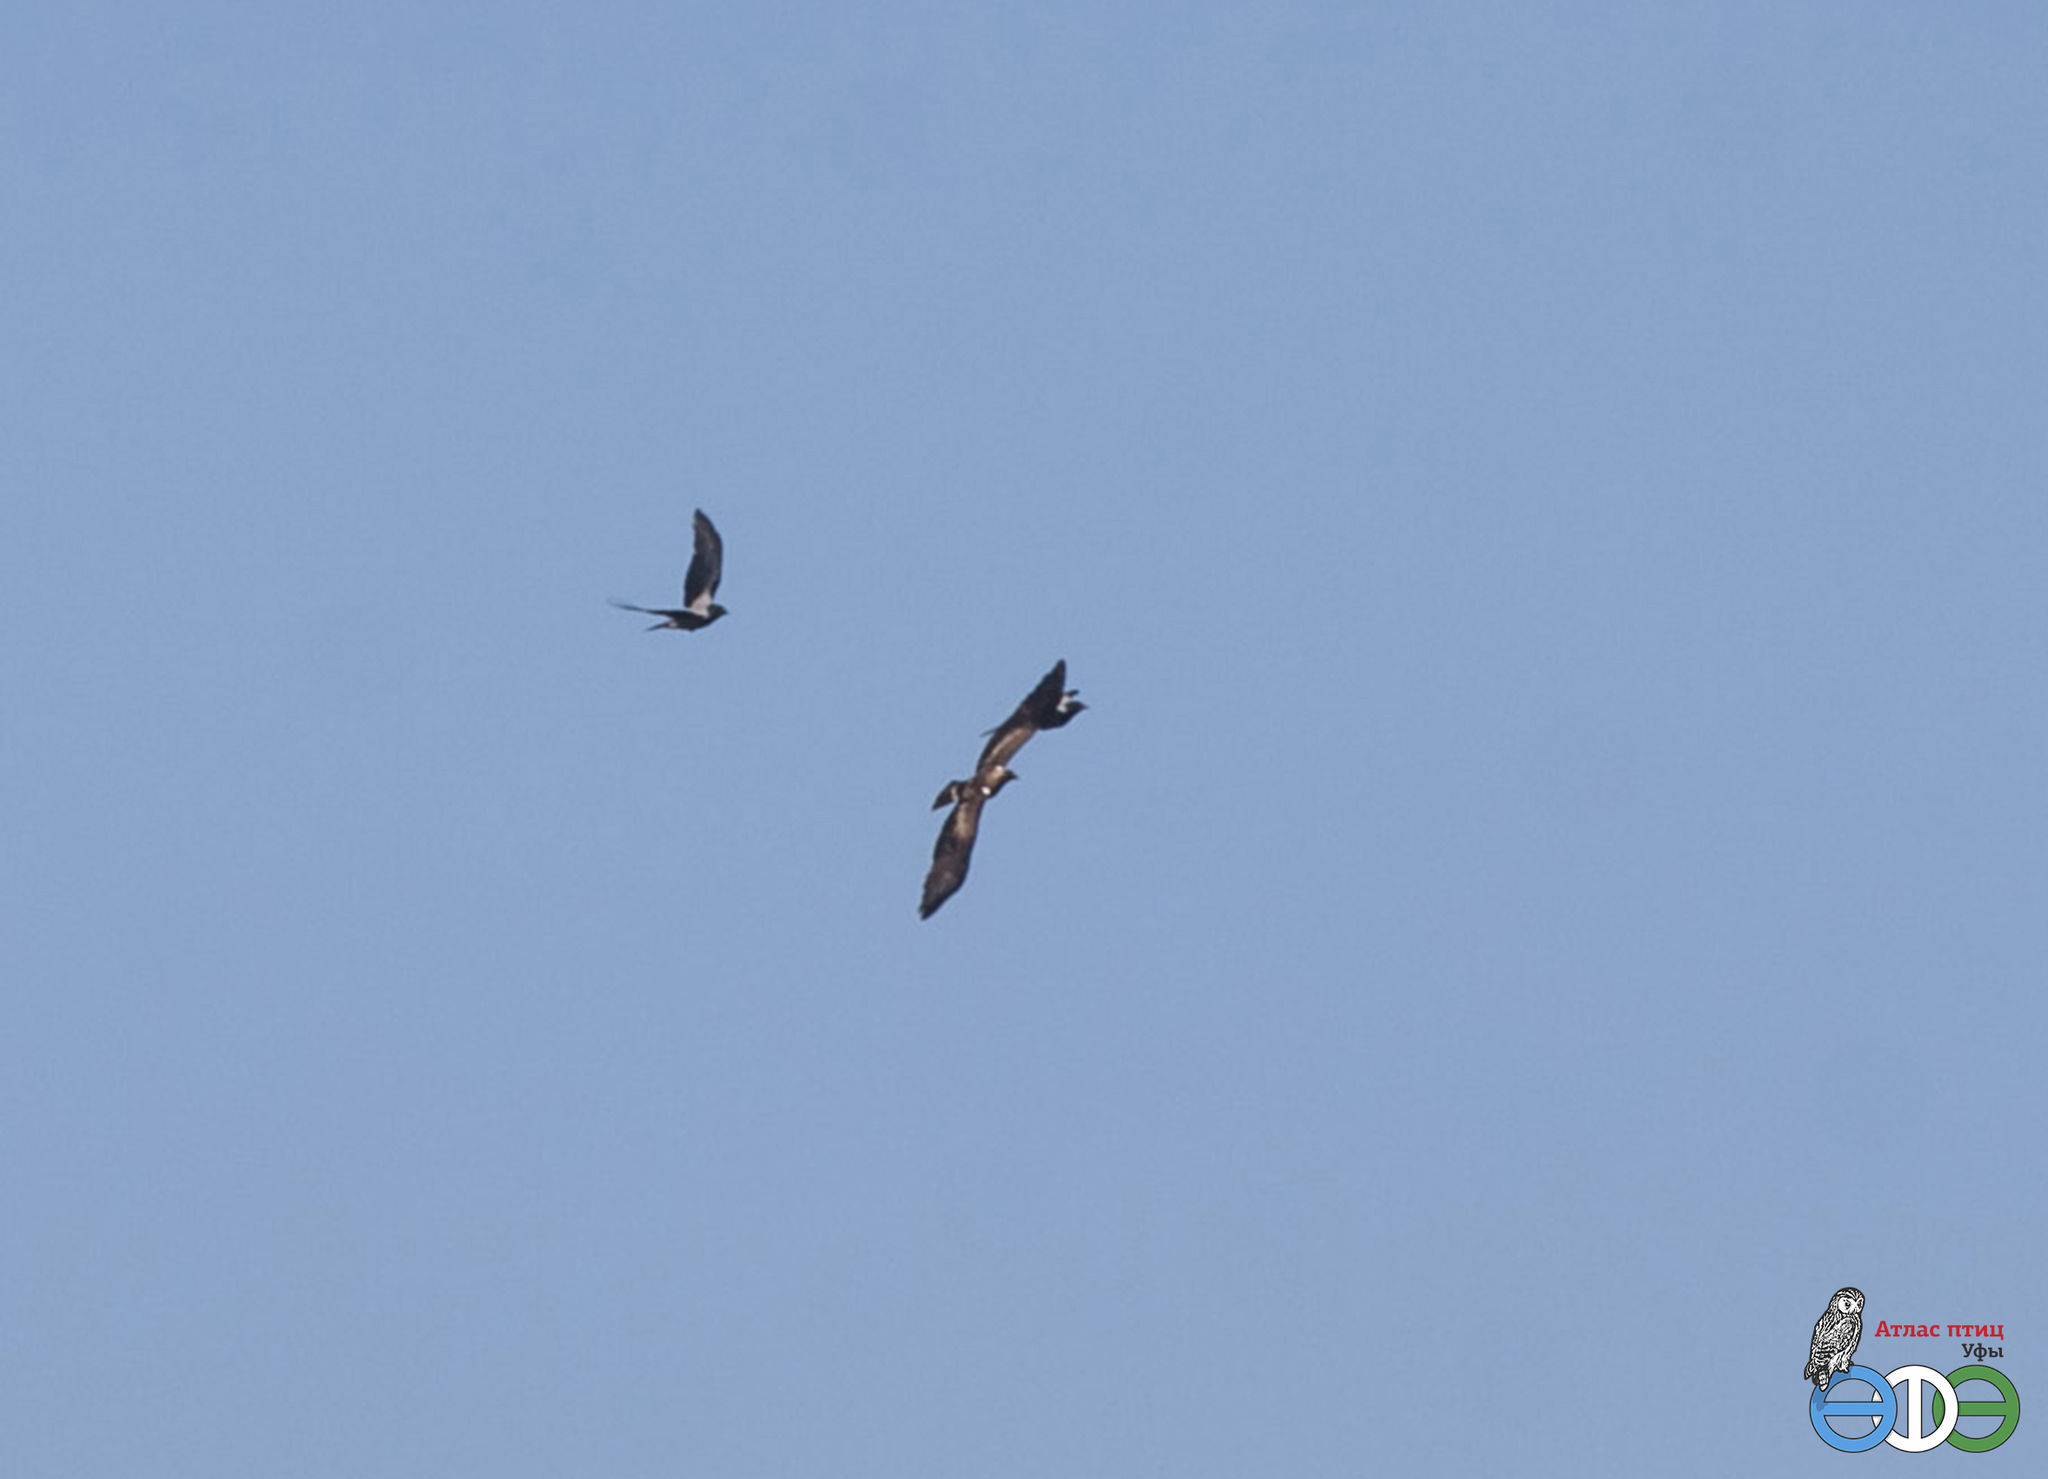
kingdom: Animalia
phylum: Chordata
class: Aves
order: Accipitriformes
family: Accipitridae
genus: Hieraaetus
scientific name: Hieraaetus pennatus
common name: Booted eagle
